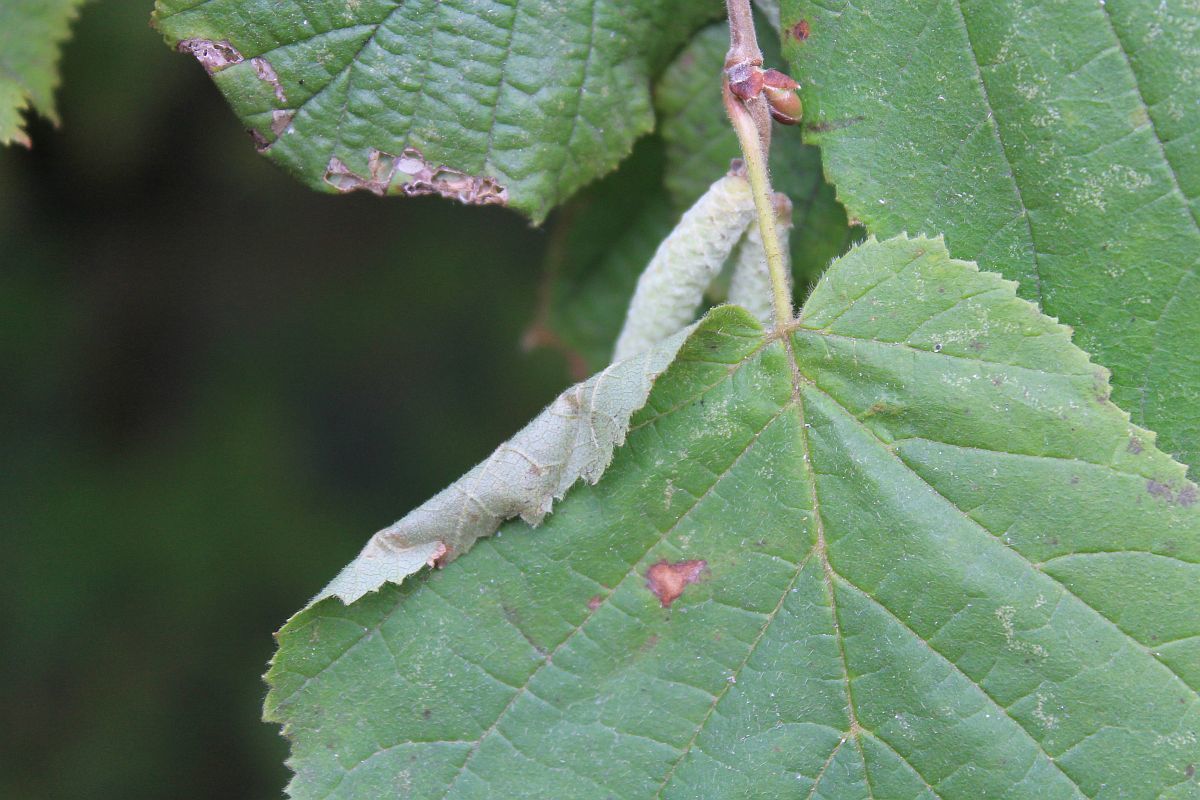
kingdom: Animalia
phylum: Arthropoda
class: Insecta
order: Lepidoptera
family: Gracillariidae
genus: Parornix
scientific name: Parornix devoniella
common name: Hazel slender
